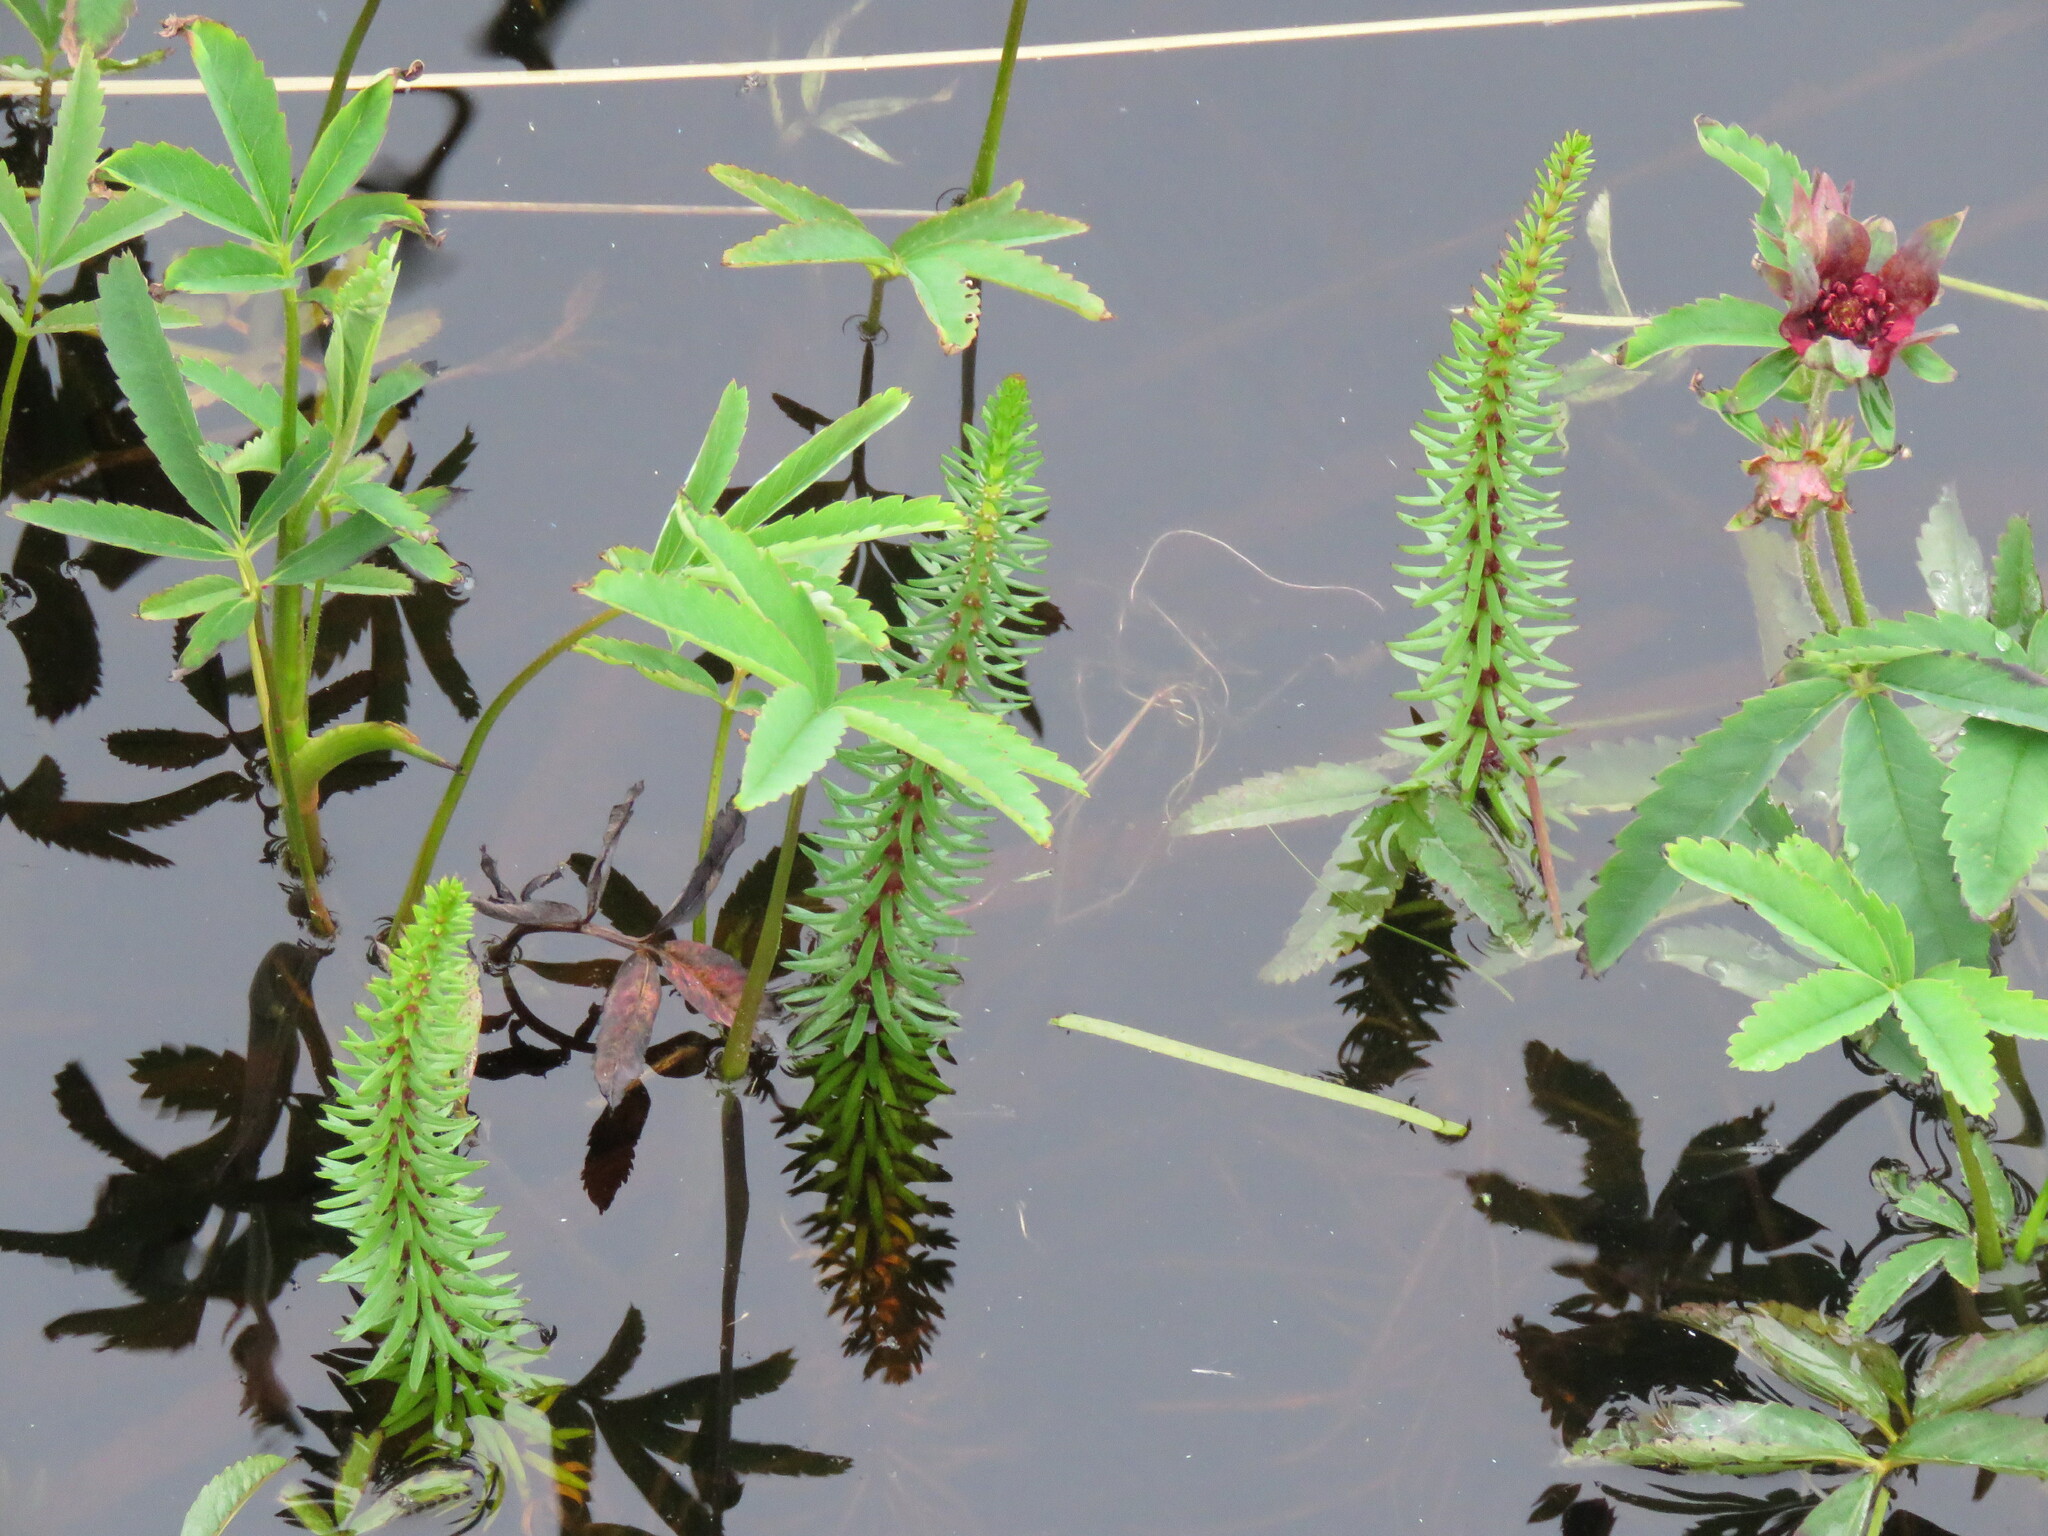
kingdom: Plantae
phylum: Tracheophyta
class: Magnoliopsida
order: Lamiales
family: Plantaginaceae
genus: Hippuris
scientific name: Hippuris vulgaris
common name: Mare's-tail
